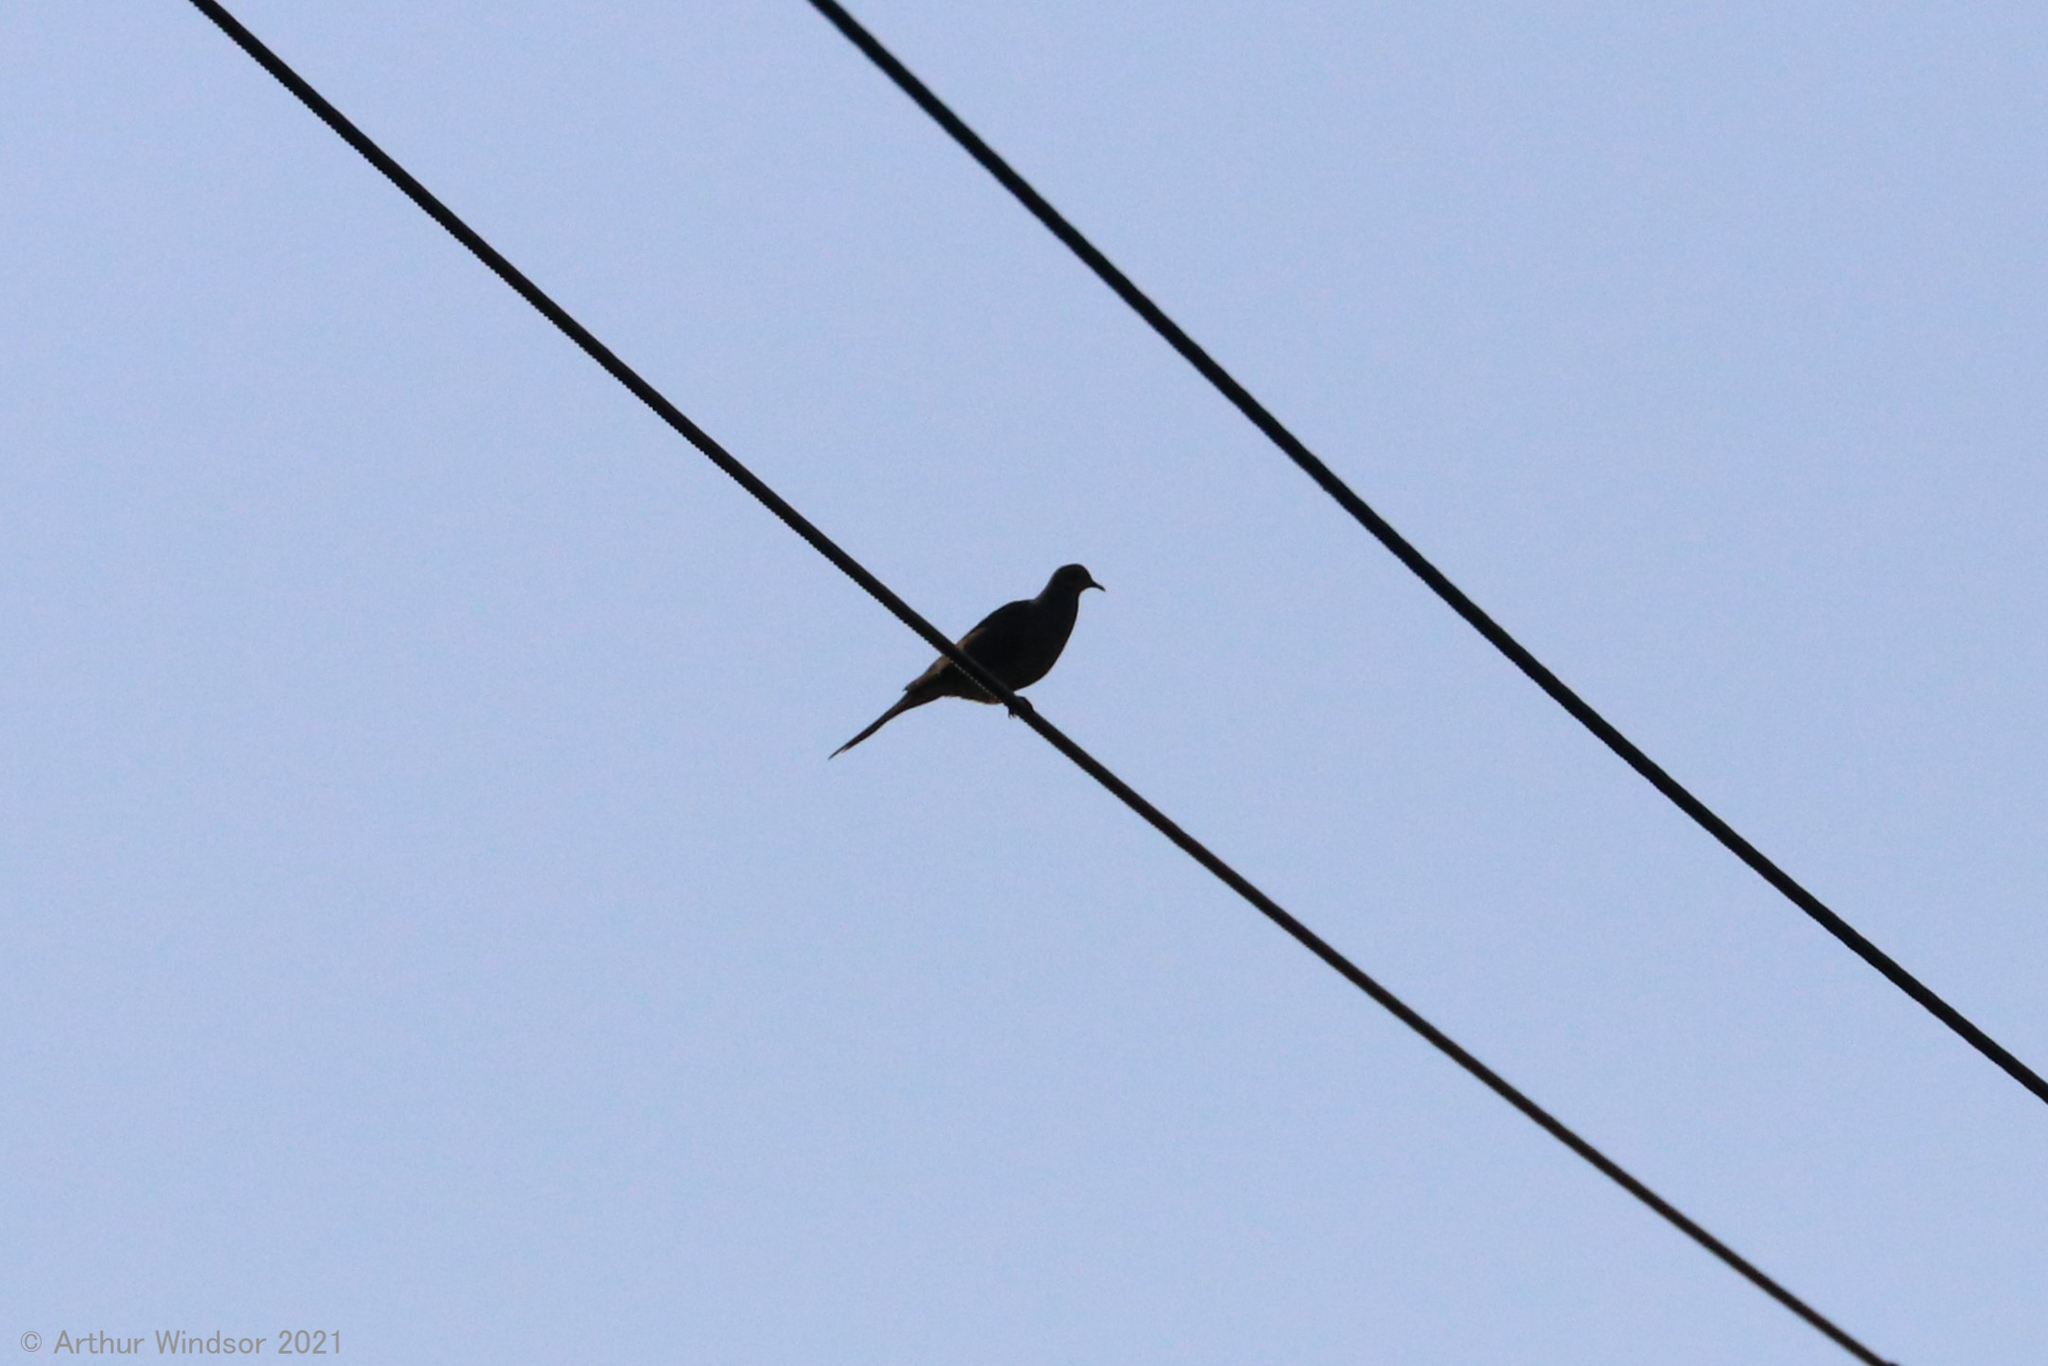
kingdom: Animalia
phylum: Chordata
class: Aves
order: Columbiformes
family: Columbidae
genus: Zenaida
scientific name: Zenaida macroura
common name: Mourning dove
